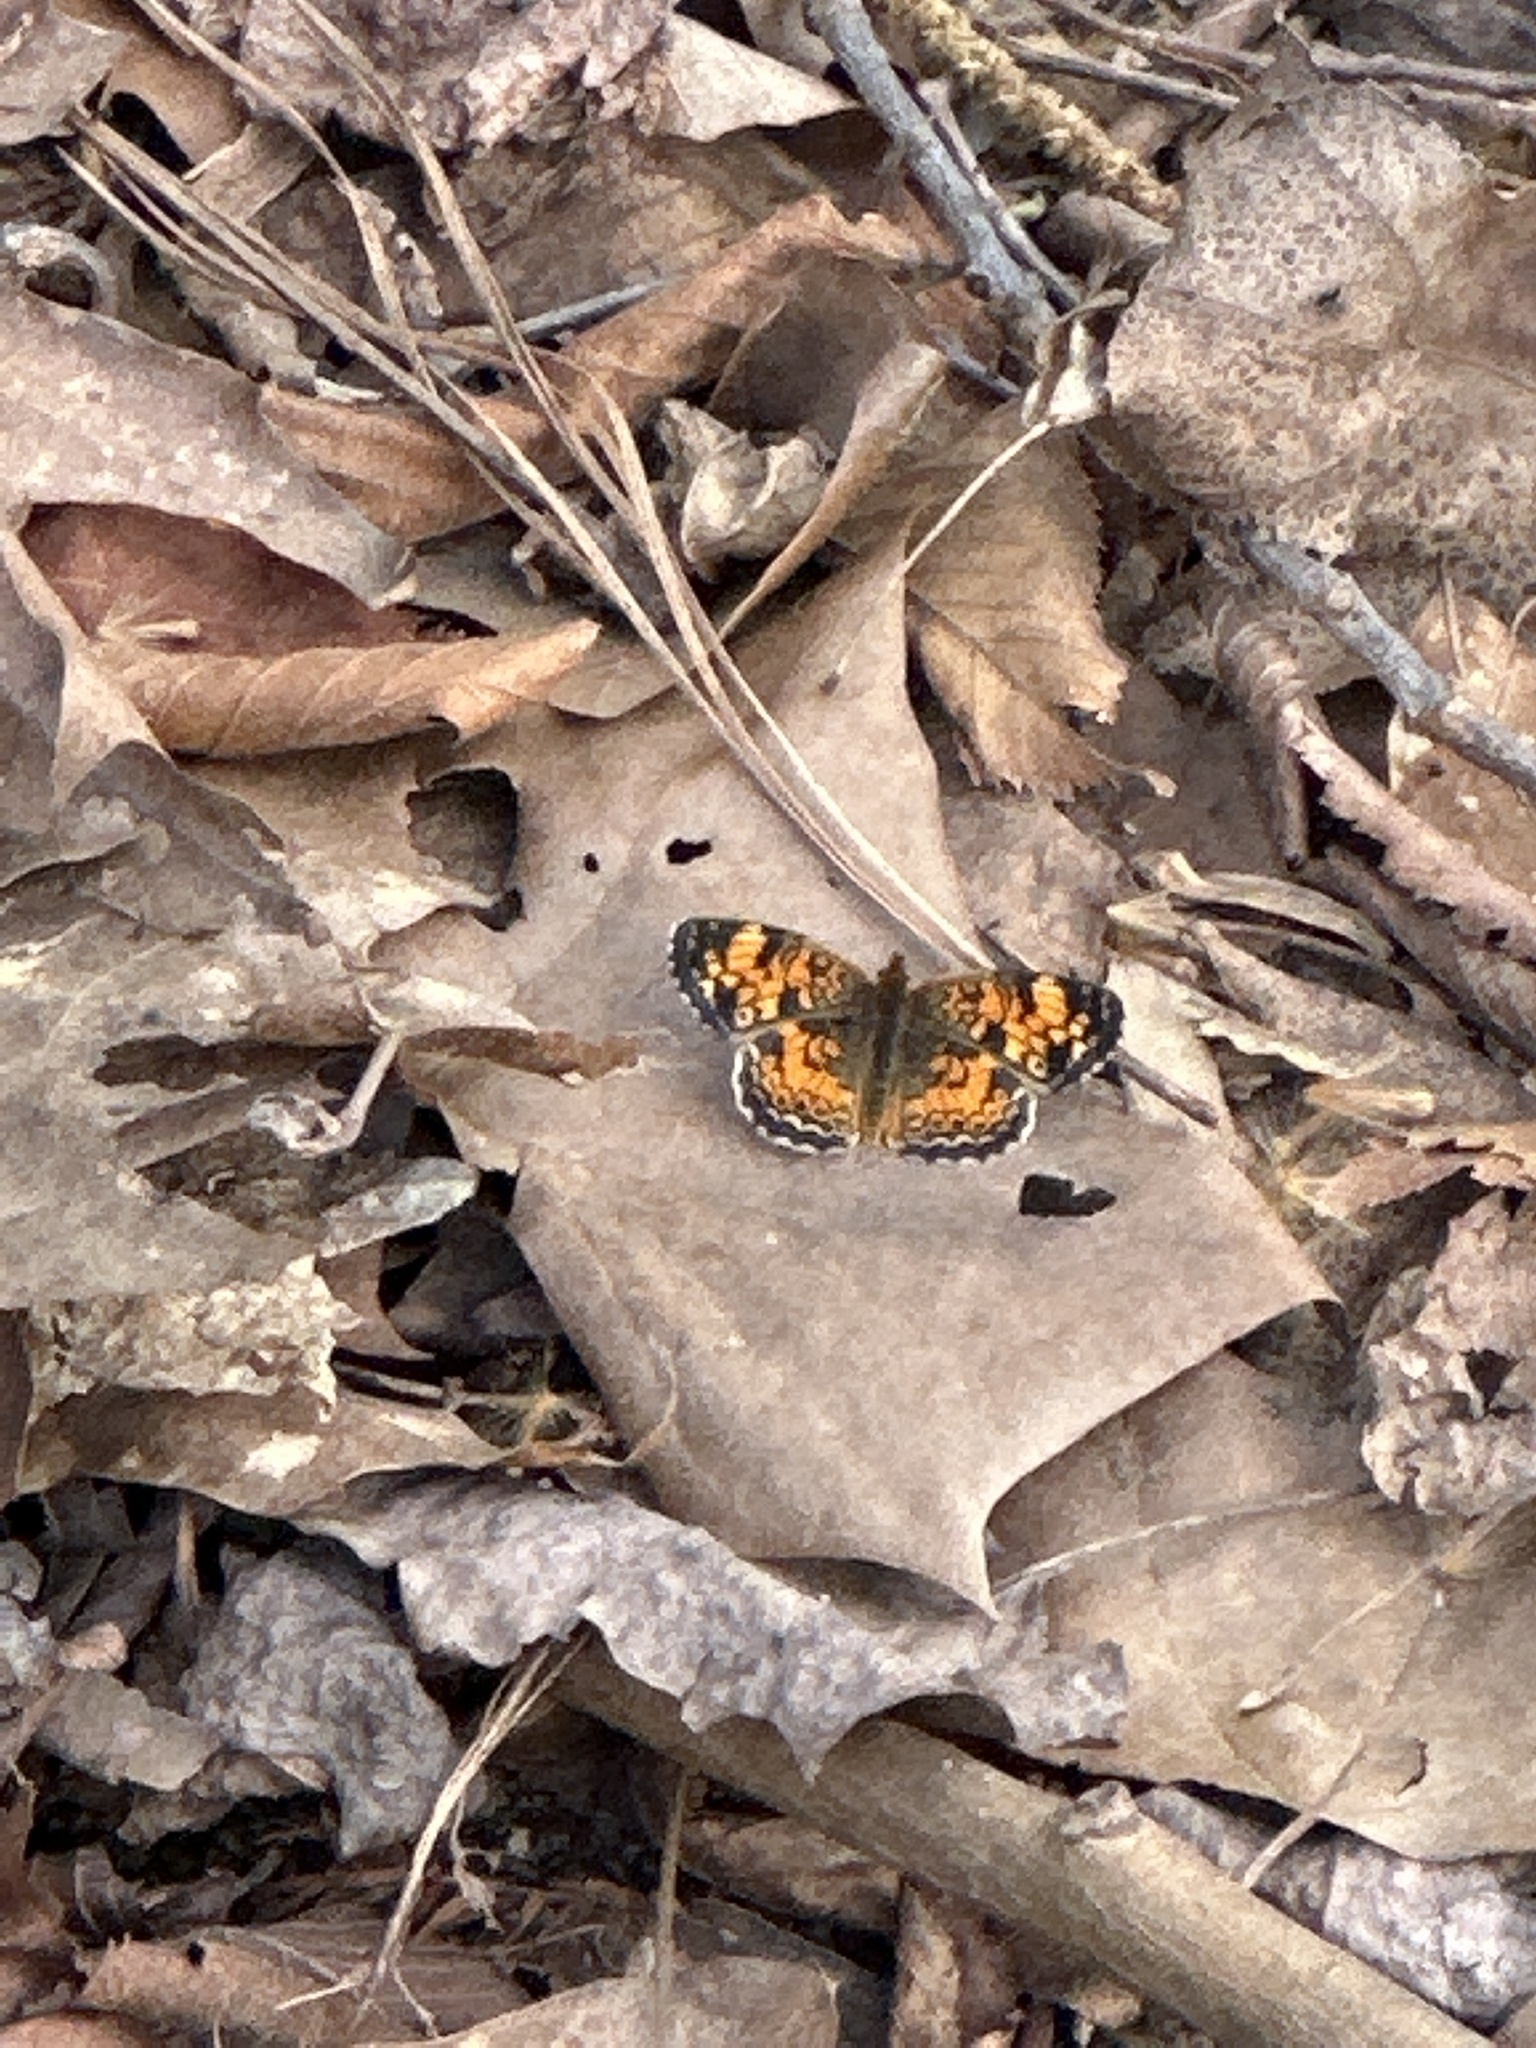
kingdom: Animalia
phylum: Arthropoda
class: Insecta
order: Lepidoptera
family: Nymphalidae
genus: Phyciodes
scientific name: Phyciodes tharos
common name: Pearl crescent
